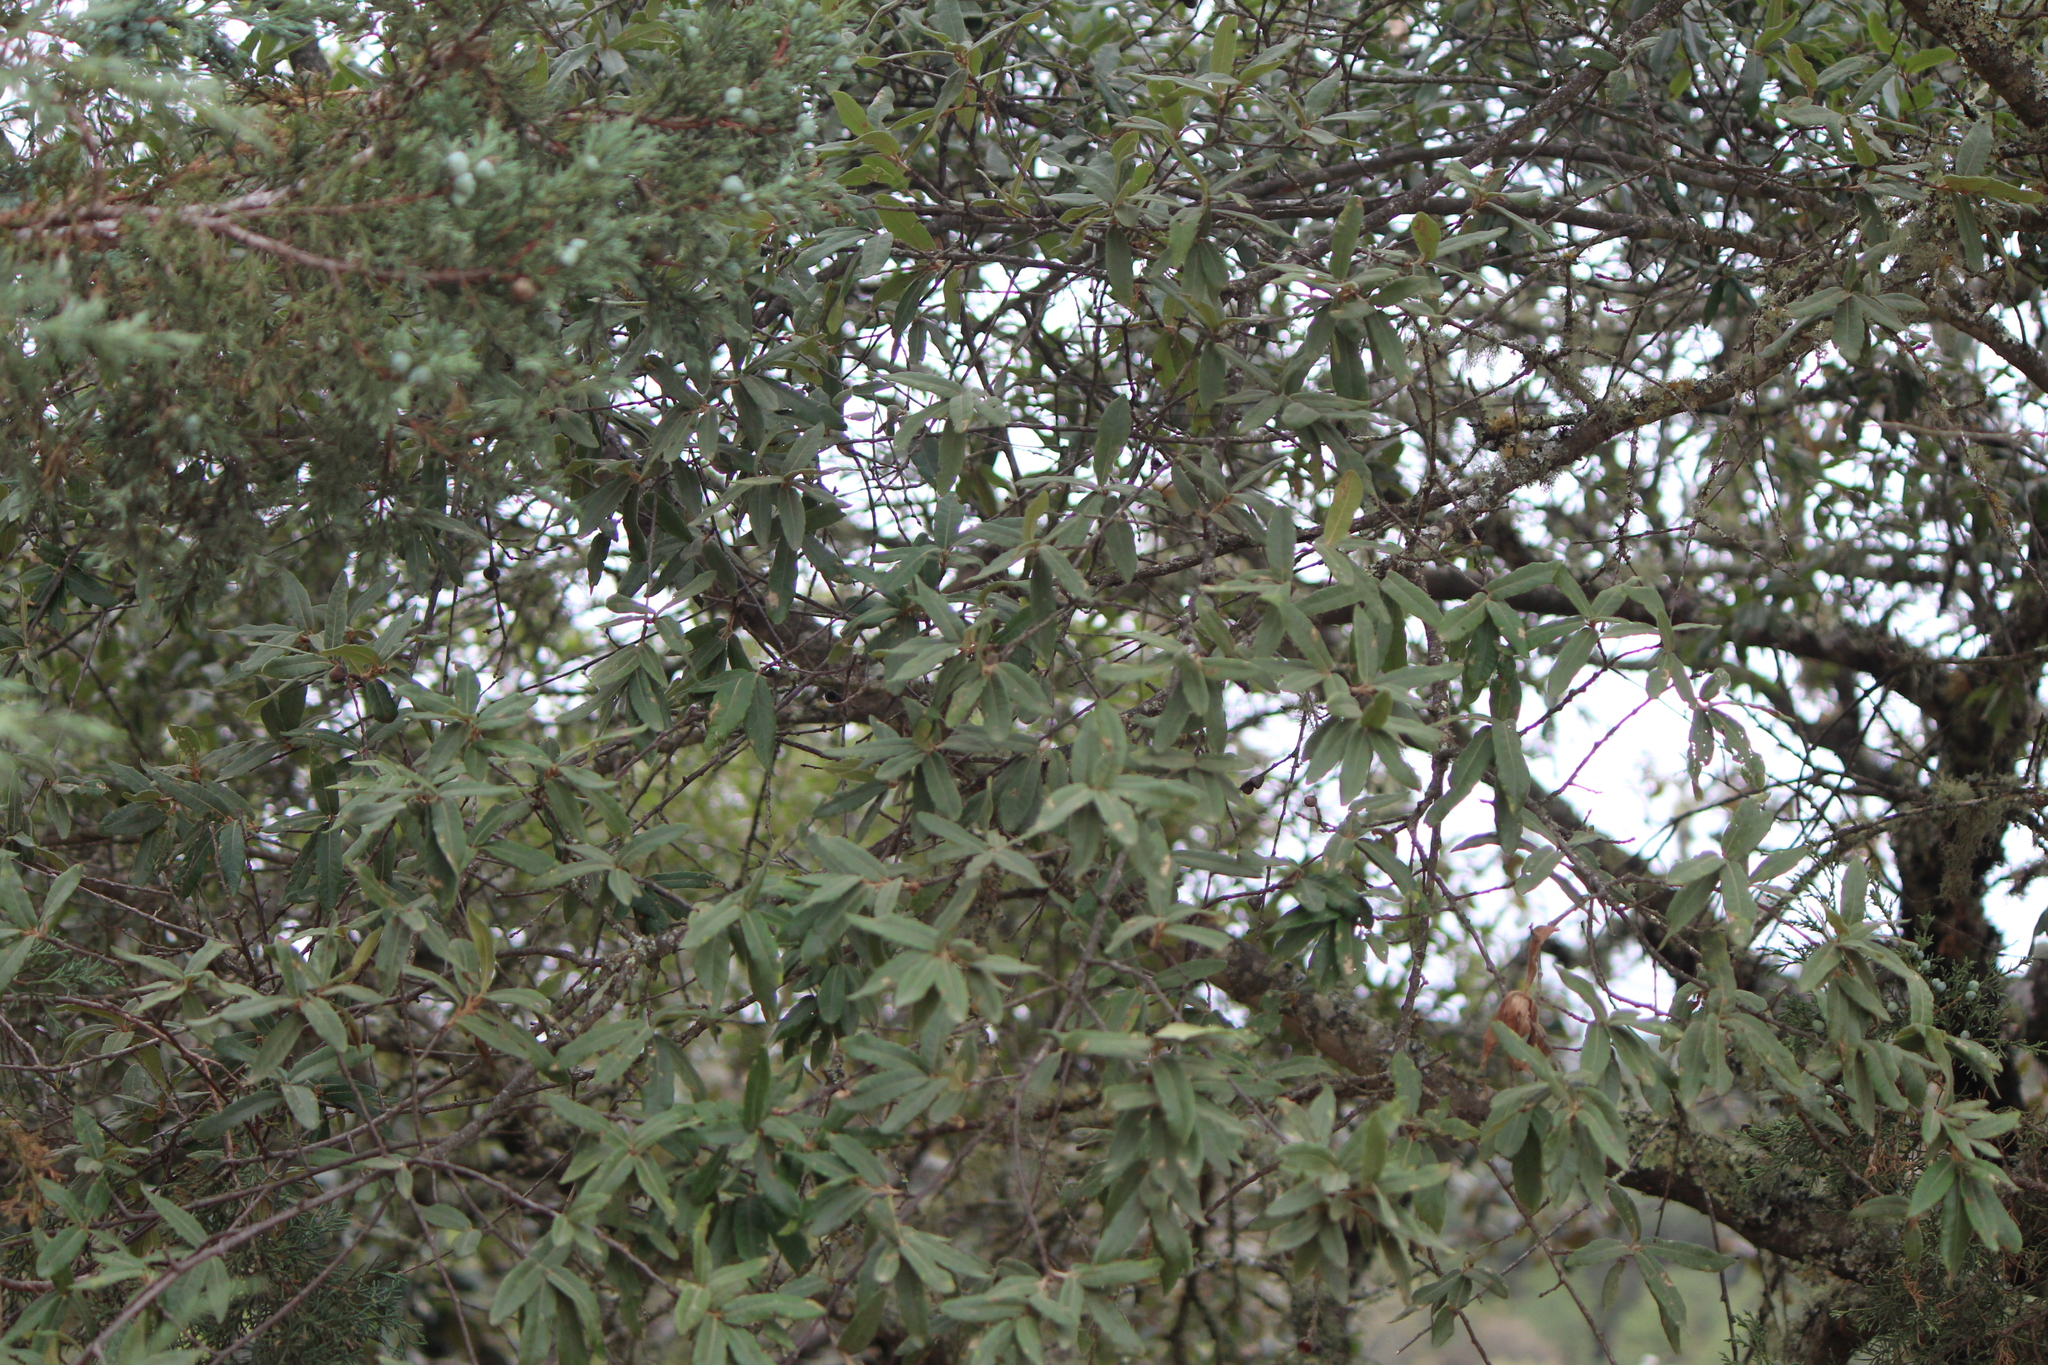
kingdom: Plantae
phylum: Tracheophyta
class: Magnoliopsida
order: Fagales
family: Fagaceae
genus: Quercus
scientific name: Quercus crassipes
